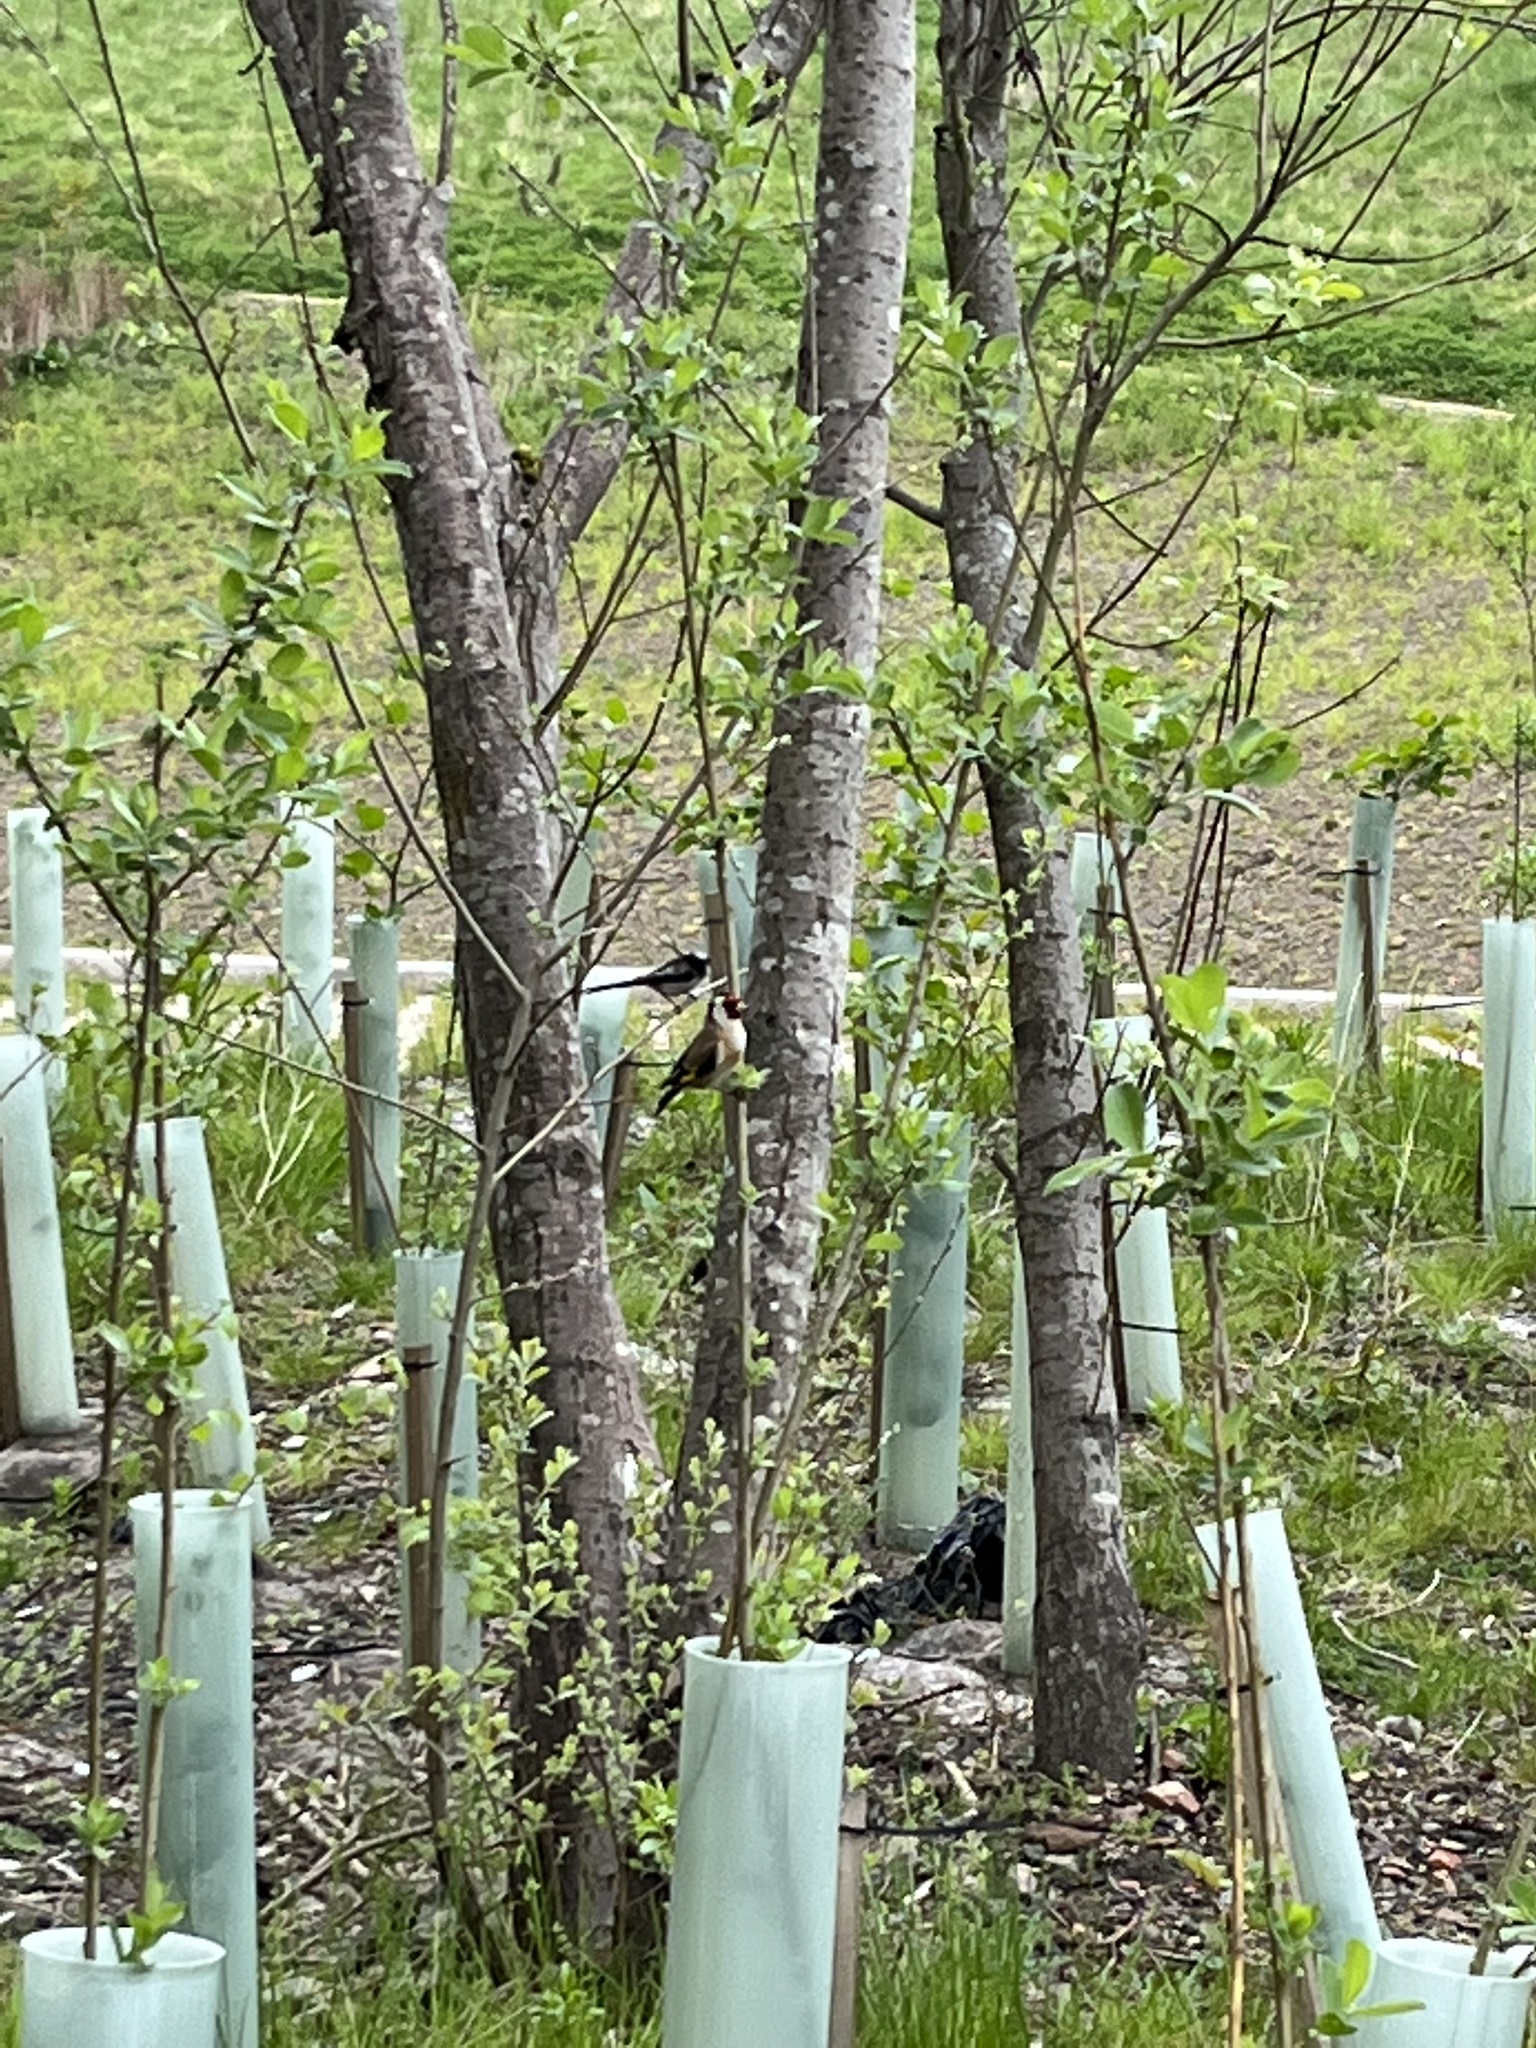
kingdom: Animalia
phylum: Chordata
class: Aves
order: Passeriformes
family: Fringillidae
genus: Carduelis
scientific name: Carduelis carduelis
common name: European goldfinch
